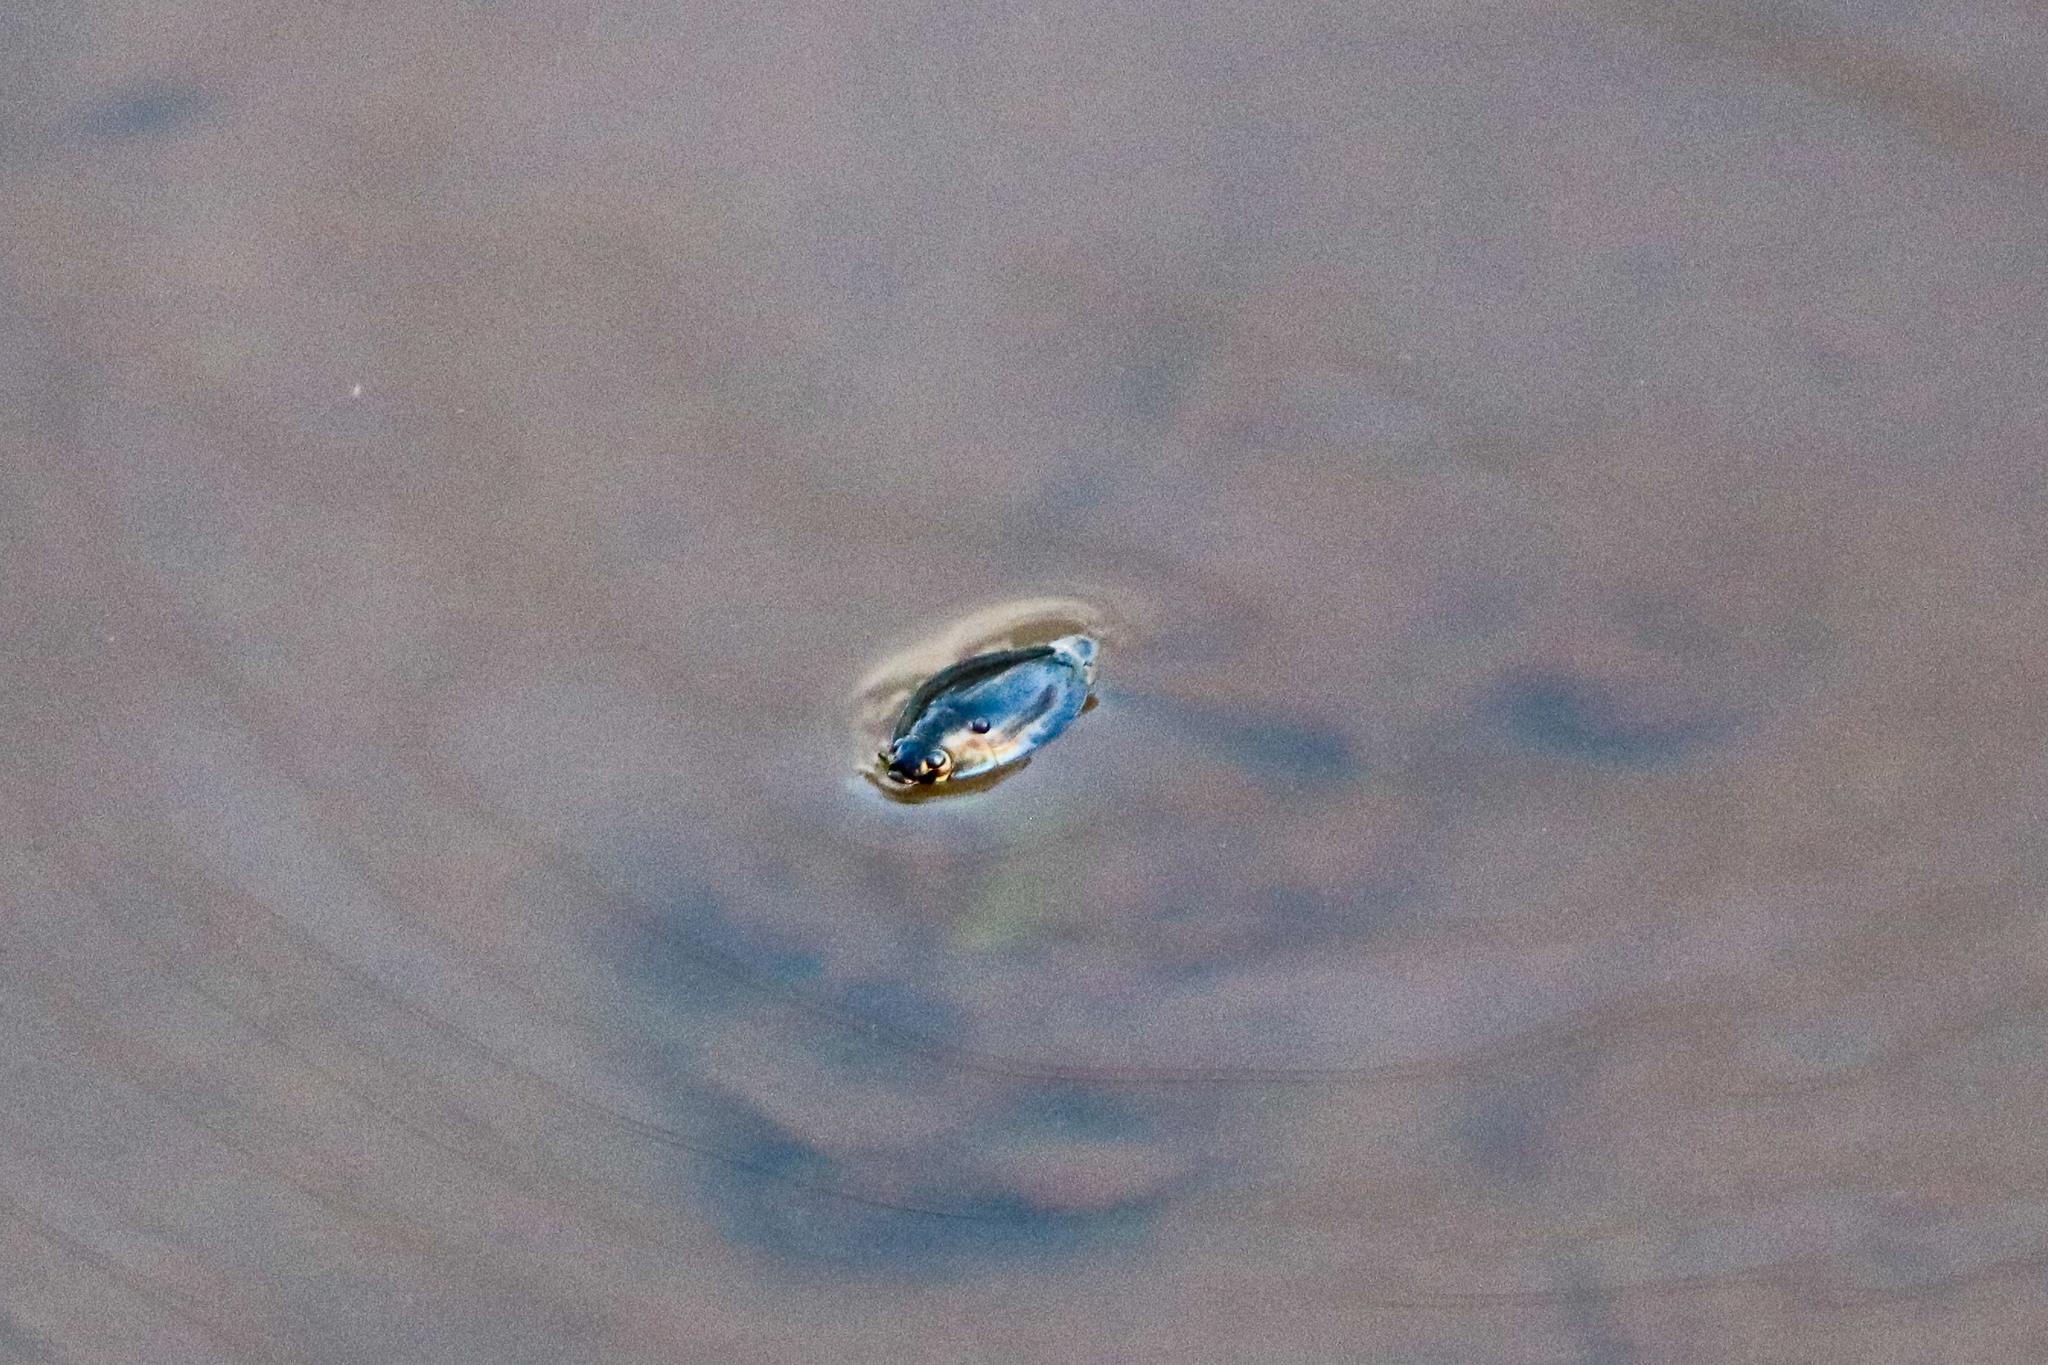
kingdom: Animalia
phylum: Arthropoda
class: Insecta
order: Coleoptera
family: Gyrinidae
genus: Dineutus
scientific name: Dineutus
